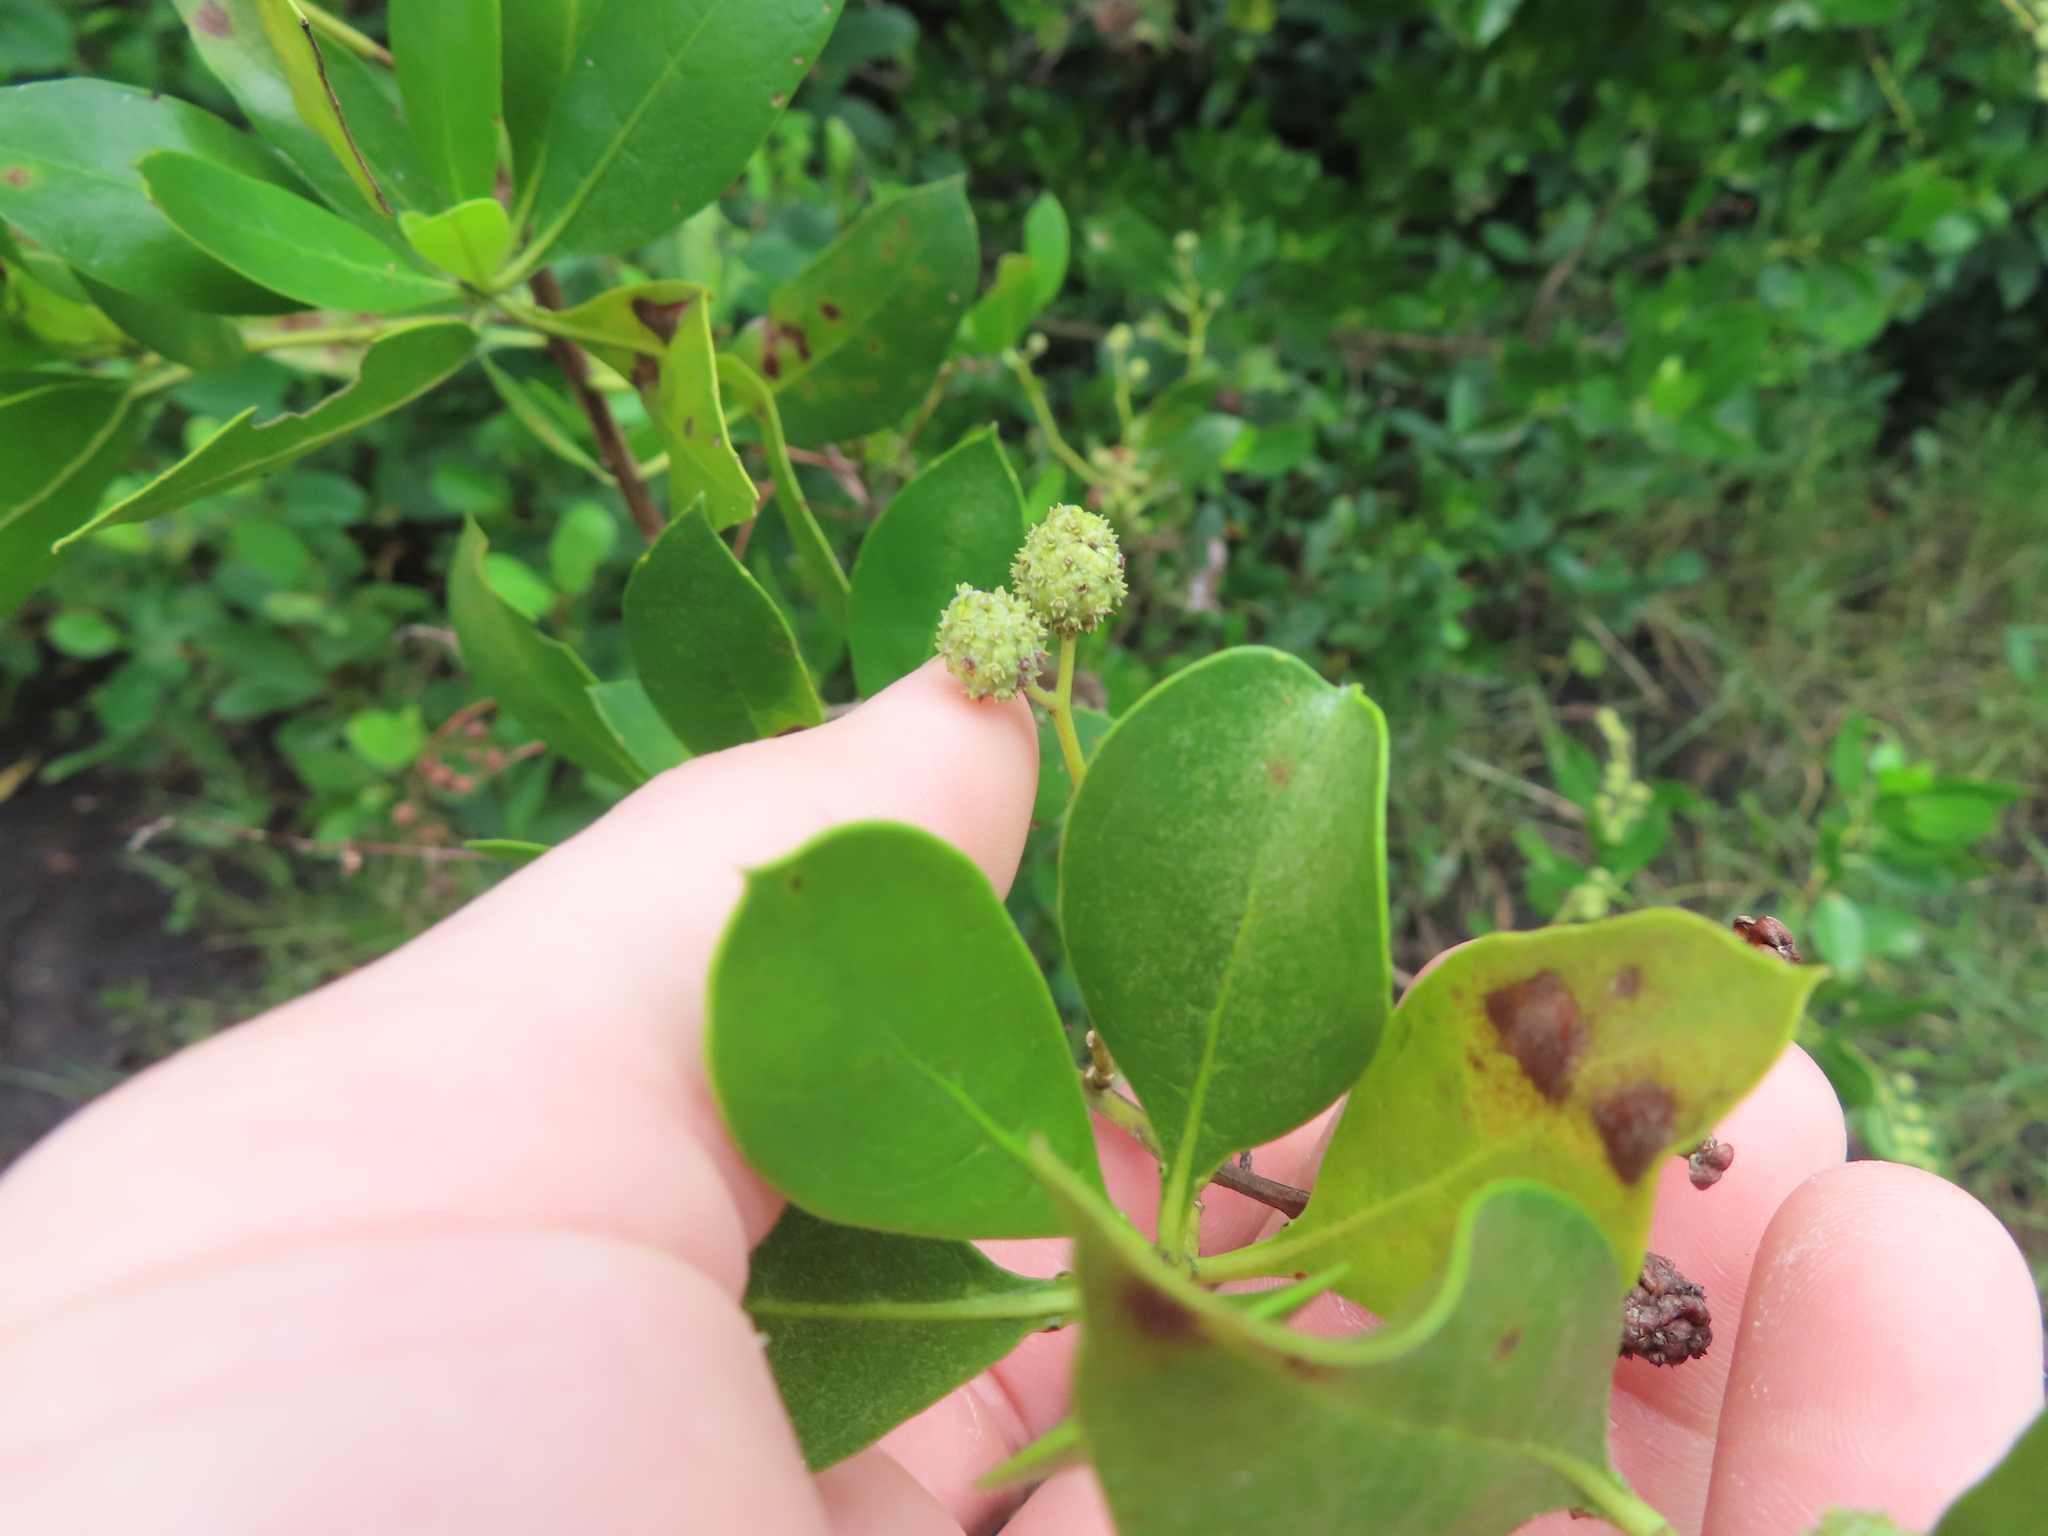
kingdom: Plantae
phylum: Tracheophyta
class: Magnoliopsida
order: Myrtales
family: Combretaceae
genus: Conocarpus
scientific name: Conocarpus erectus
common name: Button mangrove
